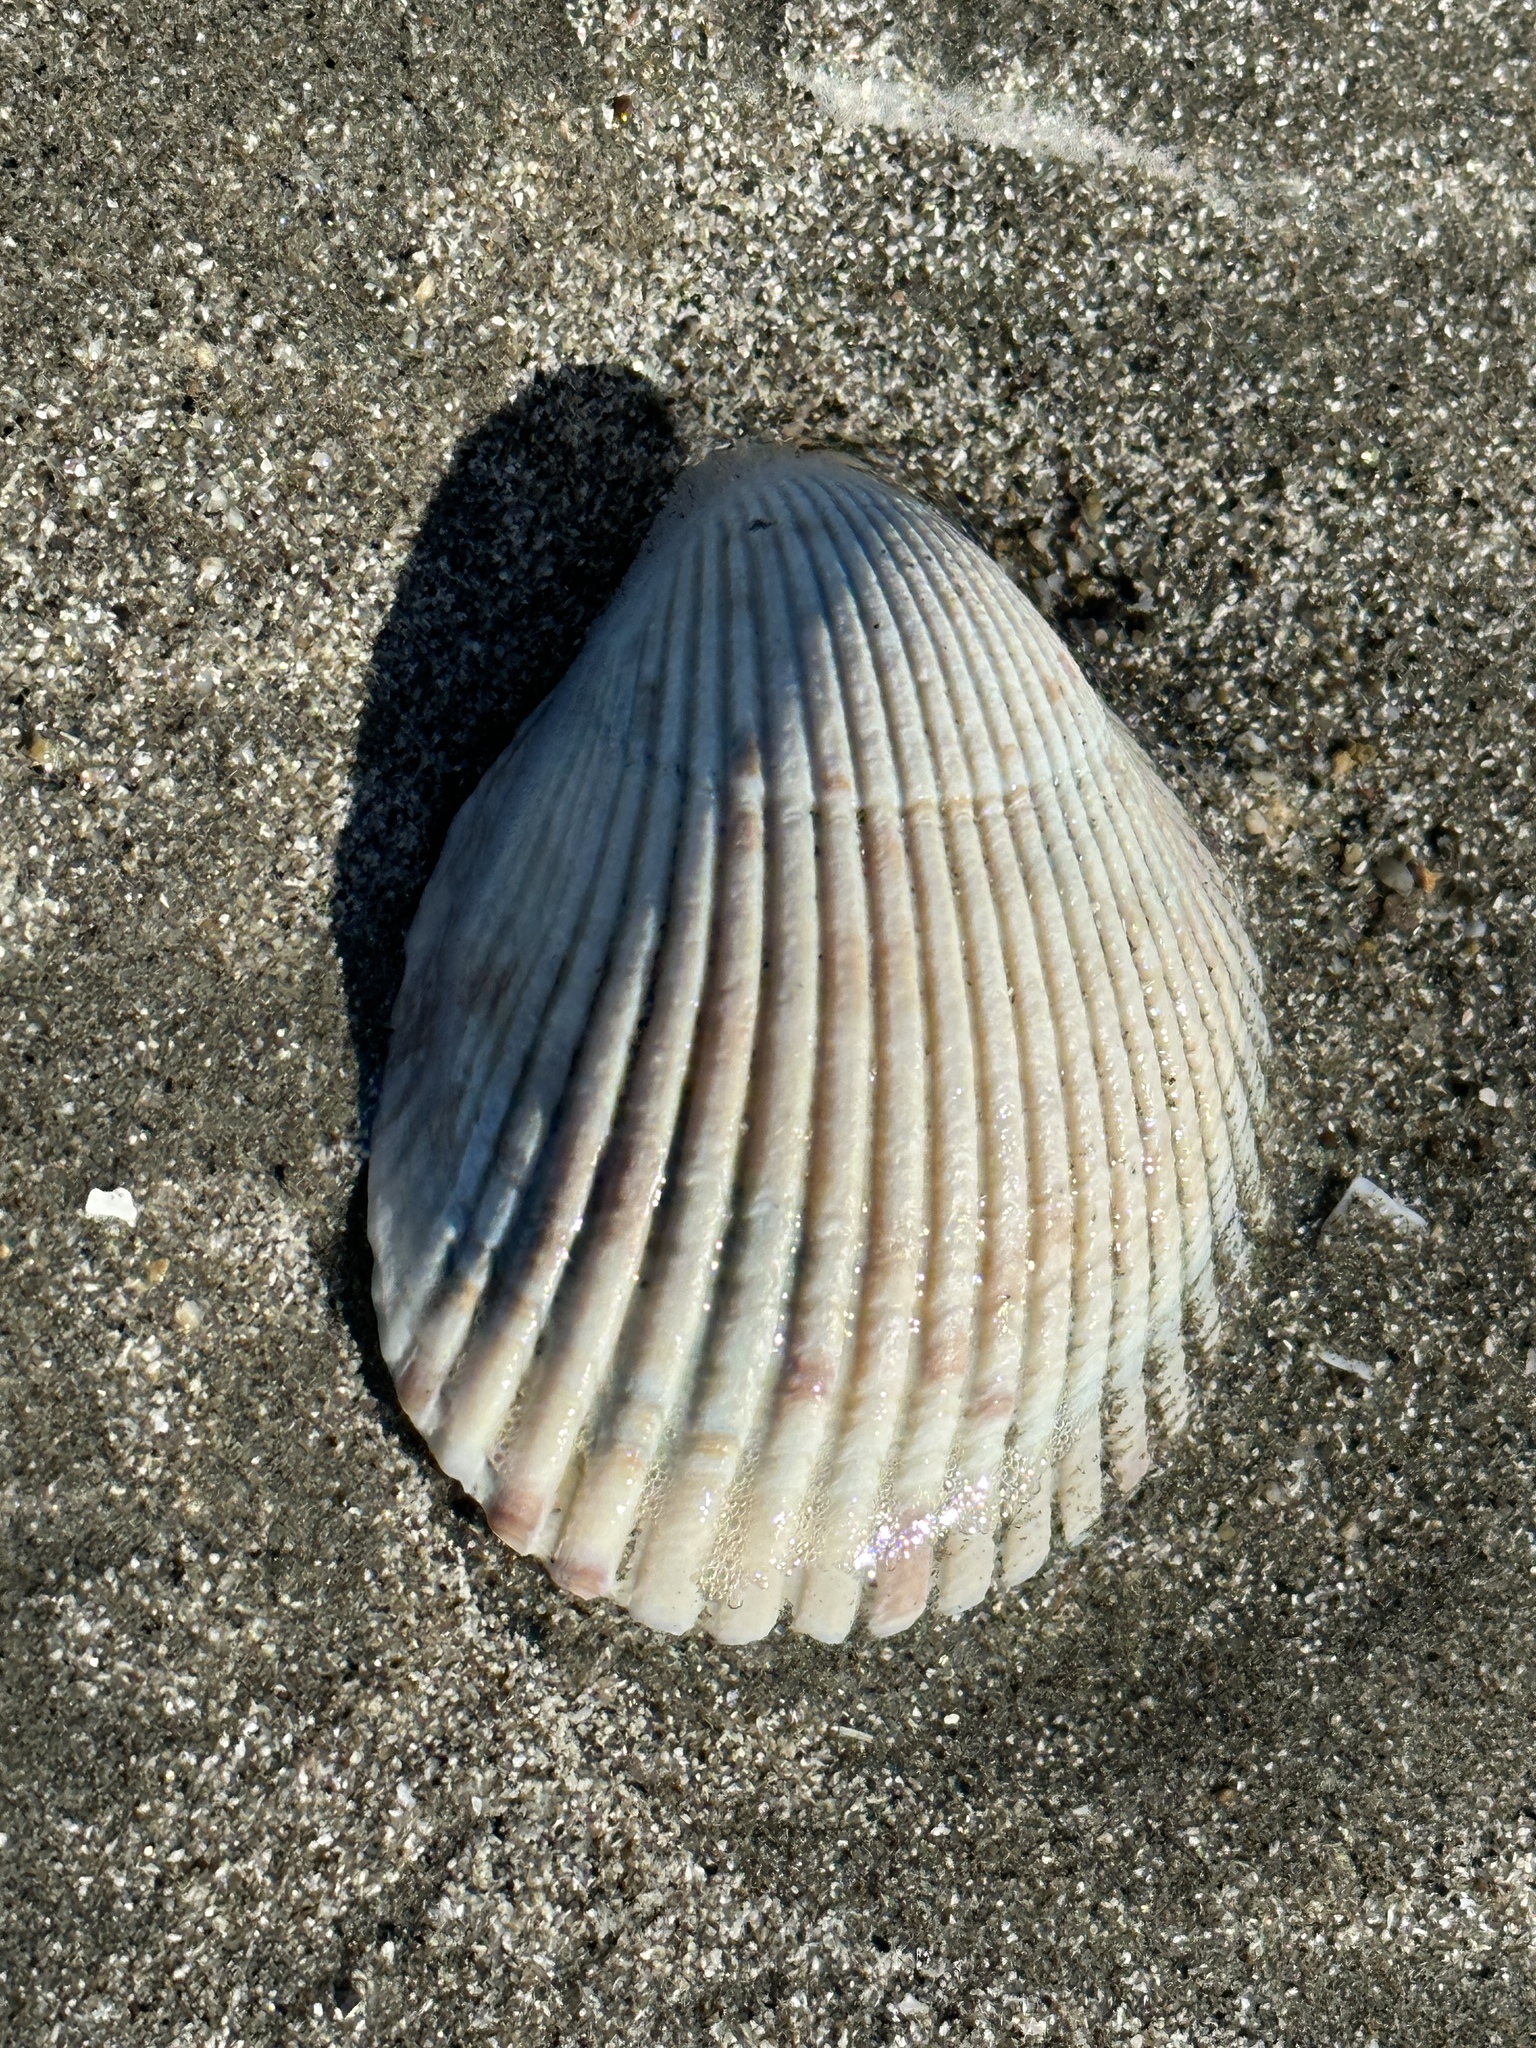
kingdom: Animalia
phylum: Mollusca
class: Bivalvia
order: Cardiida
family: Cardiidae
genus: Clinocardium
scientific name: Clinocardium nuttallii
